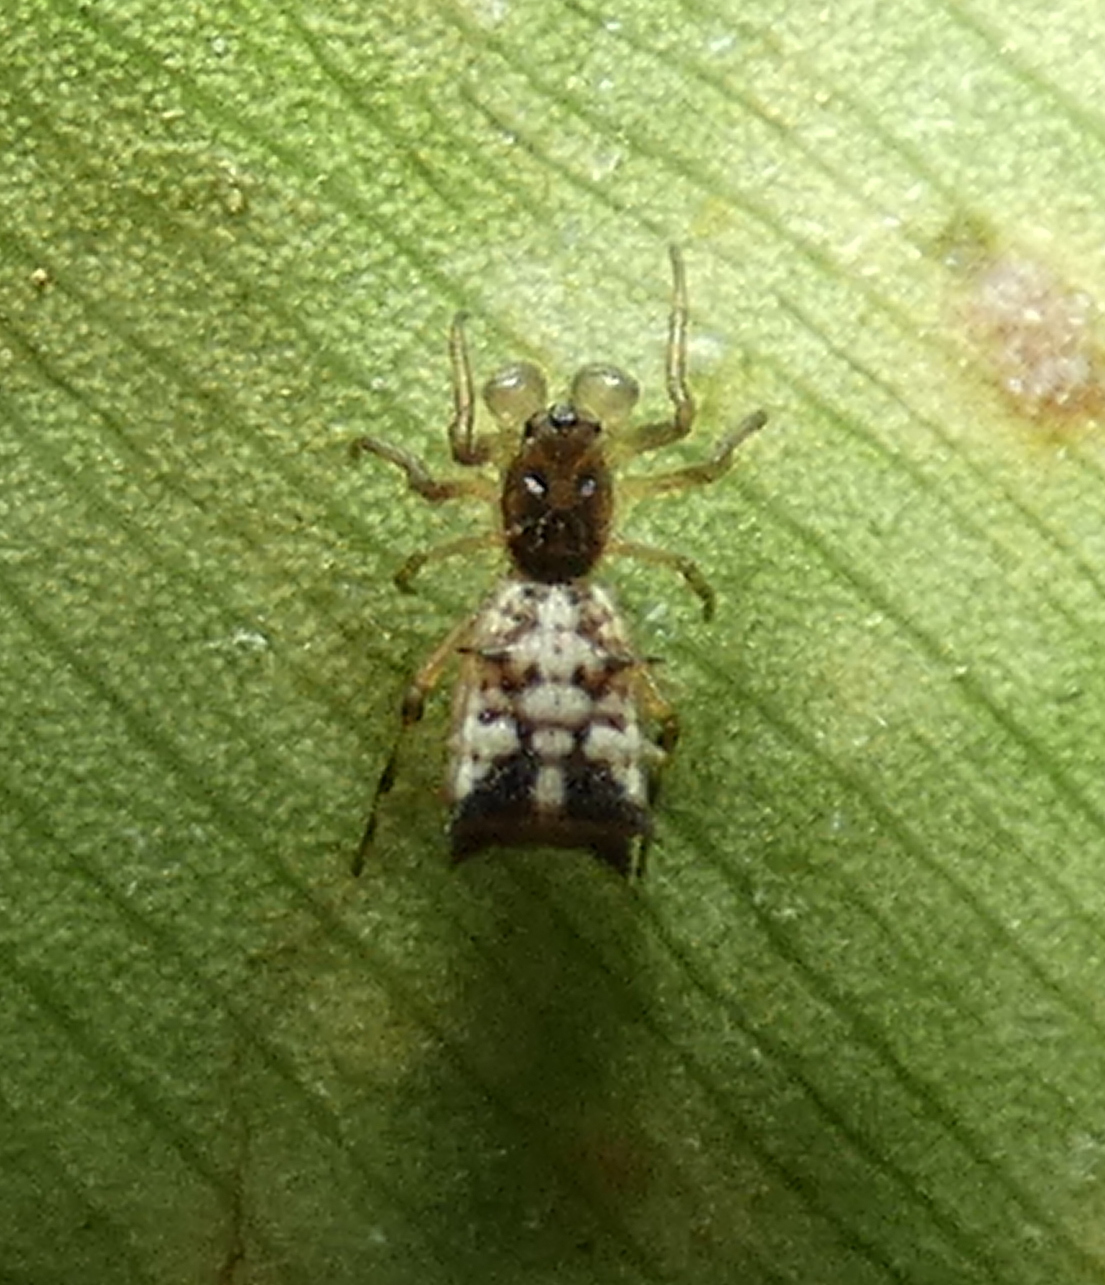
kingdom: Animalia
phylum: Arthropoda
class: Arachnida
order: Araneae
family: Araneidae
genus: Micrathena
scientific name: Micrathena picta
